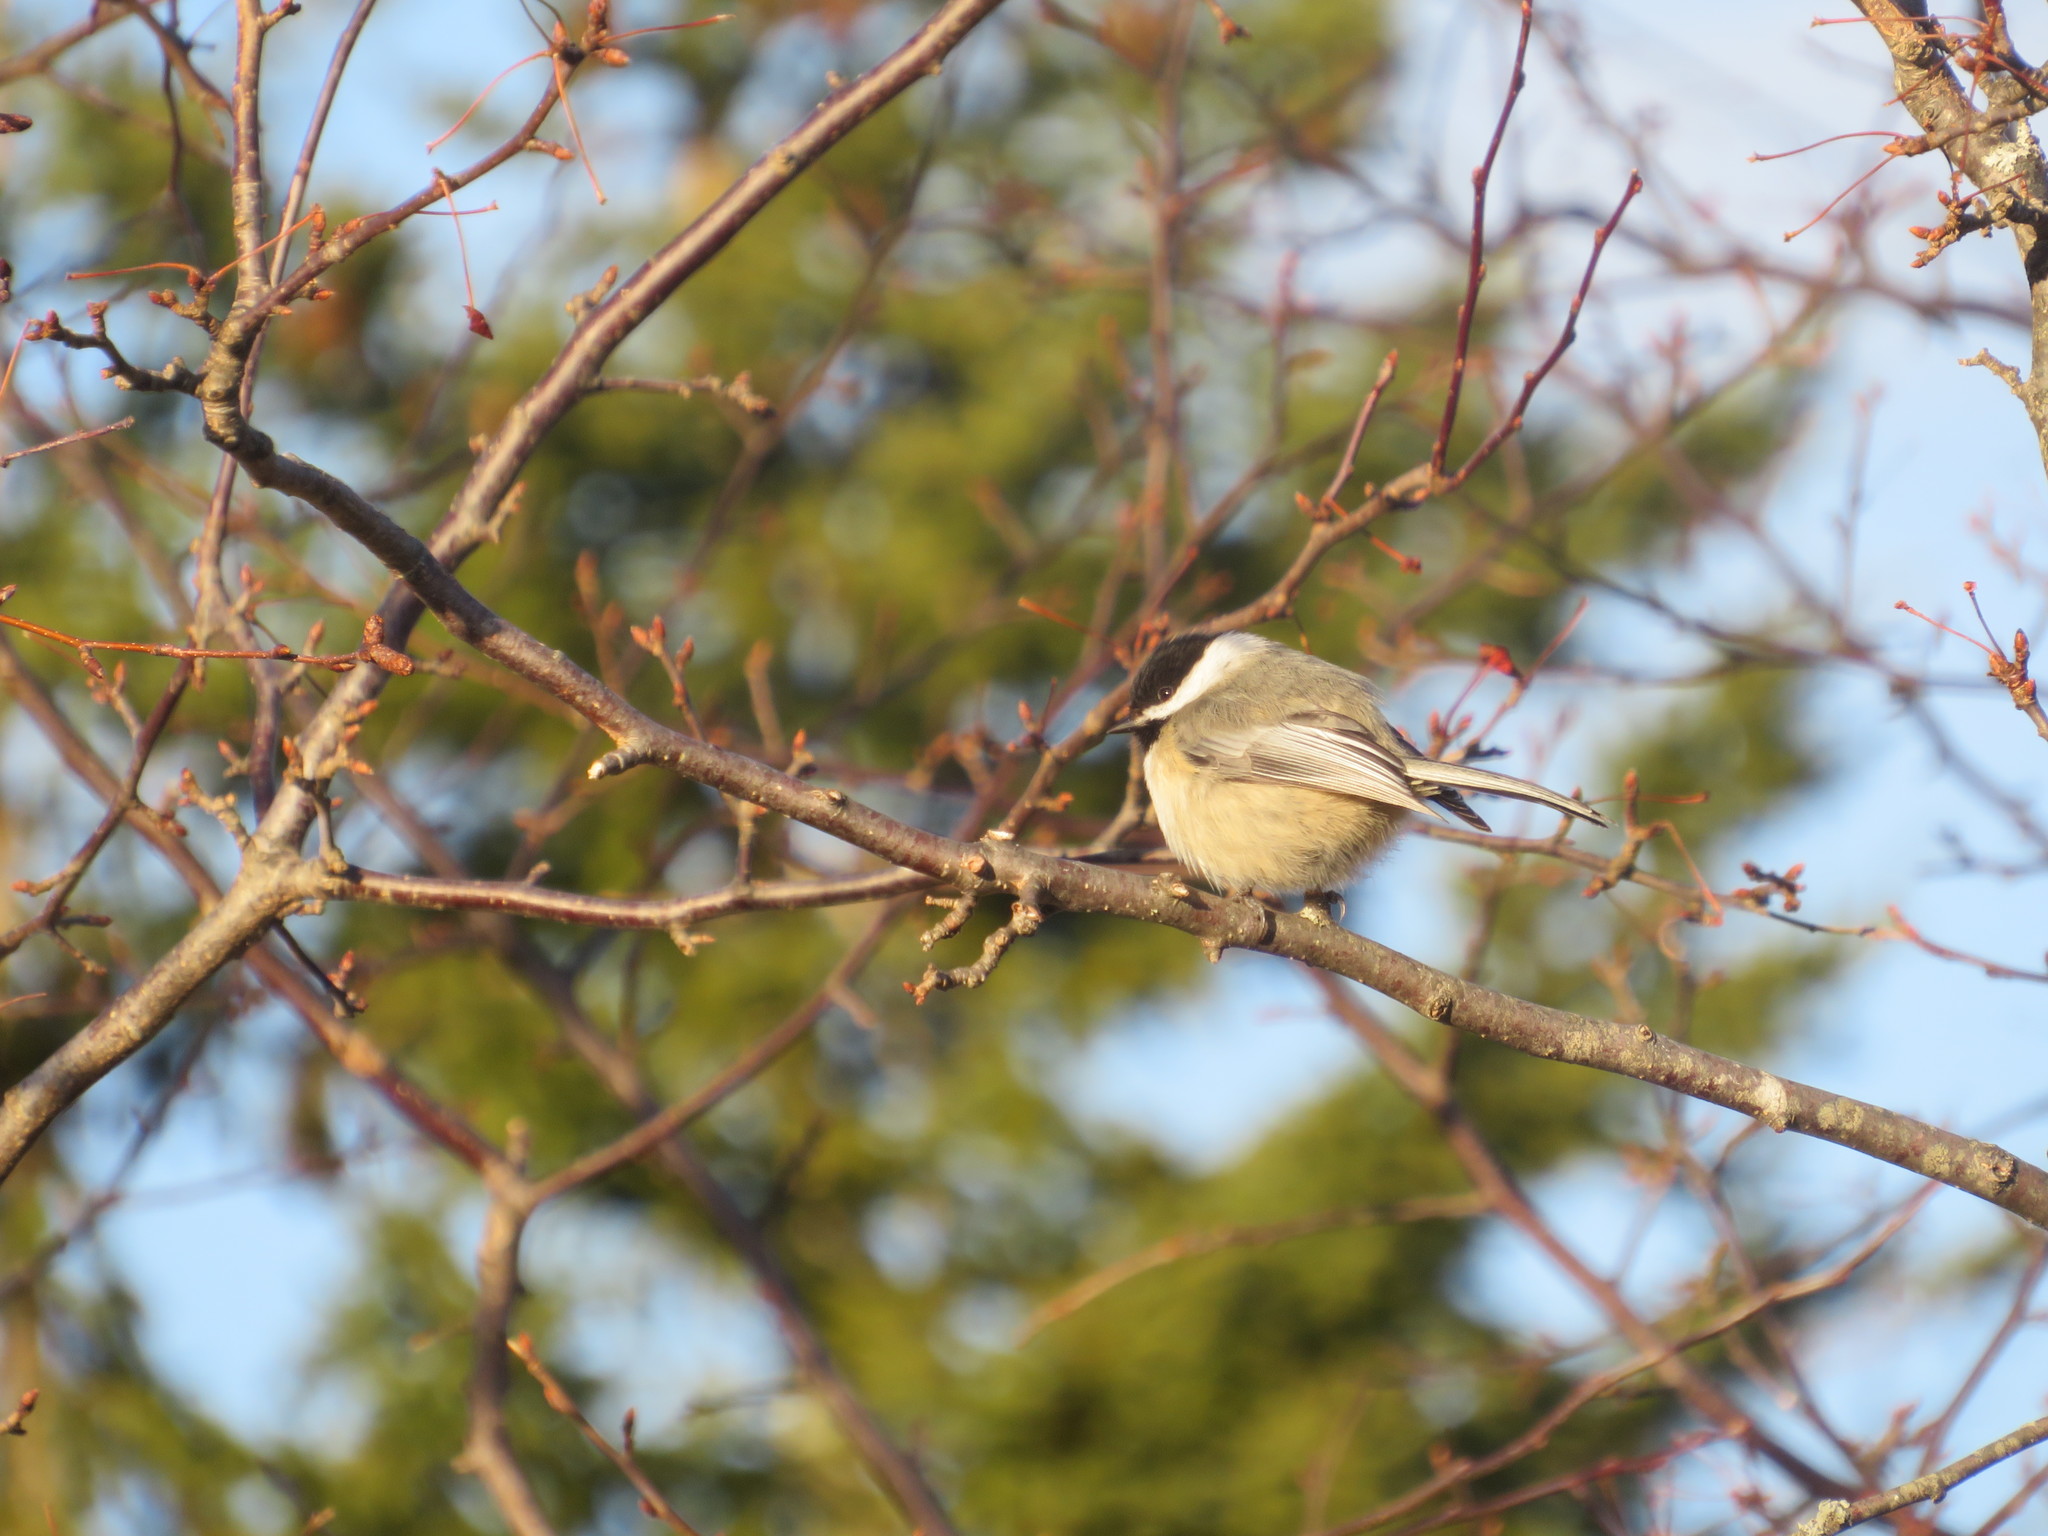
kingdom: Animalia
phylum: Chordata
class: Aves
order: Passeriformes
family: Paridae
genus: Poecile
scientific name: Poecile atricapillus
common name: Black-capped chickadee
